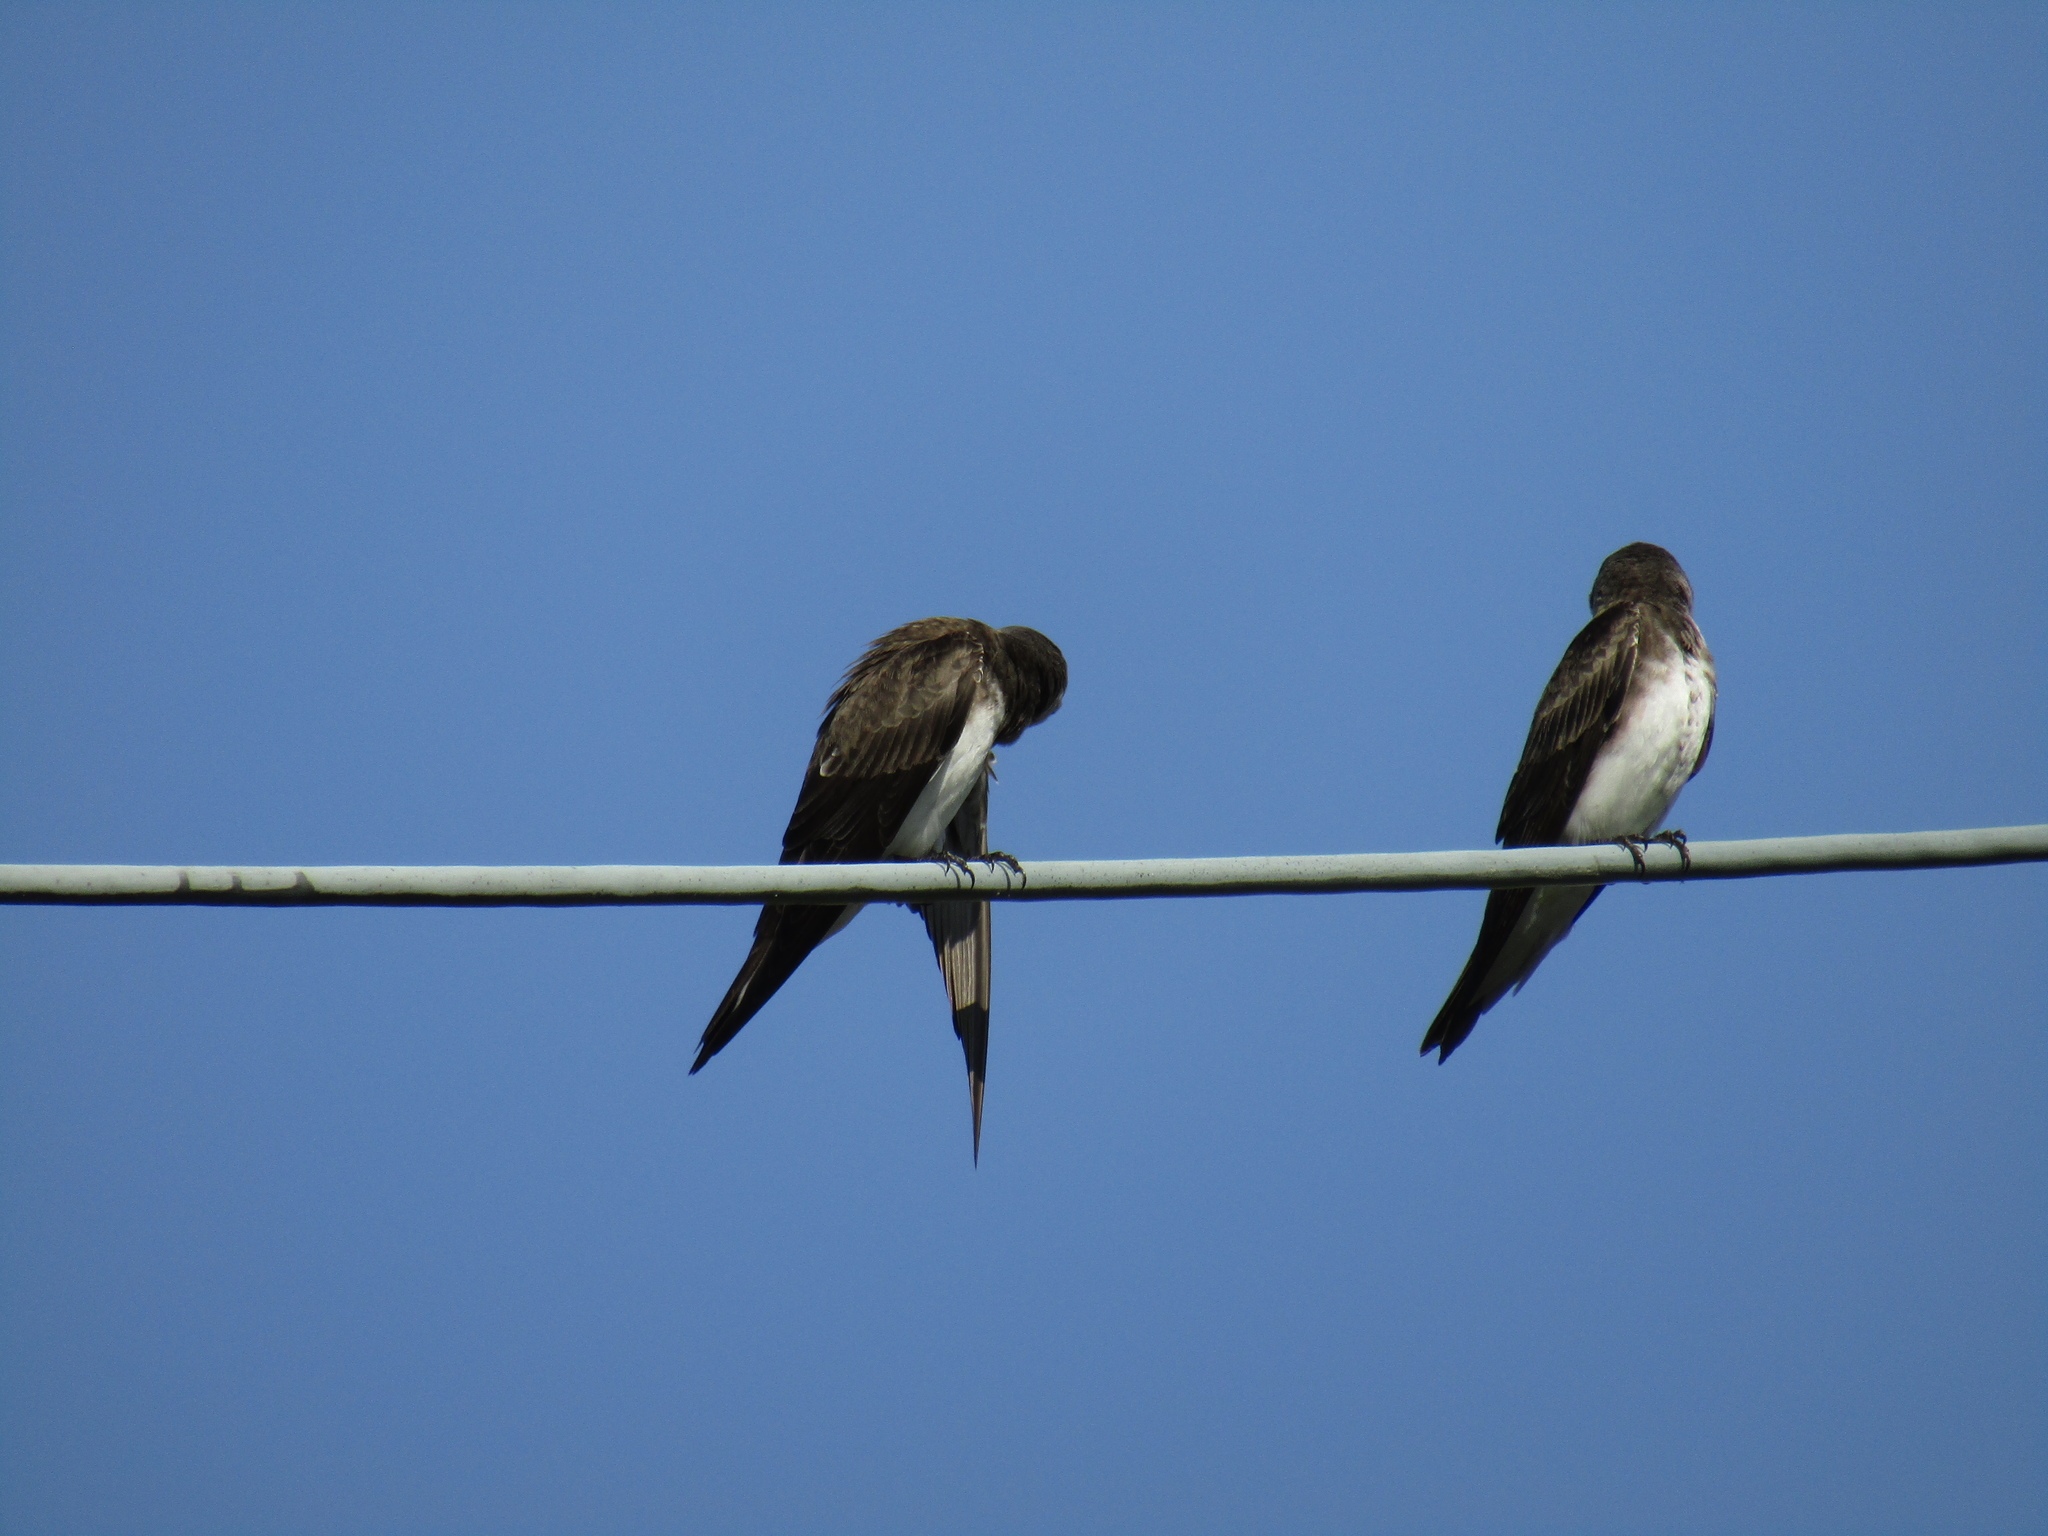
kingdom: Animalia
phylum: Chordata
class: Aves
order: Passeriformes
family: Hirundinidae
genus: Progne
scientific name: Progne tapera
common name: Brown-chested martin
